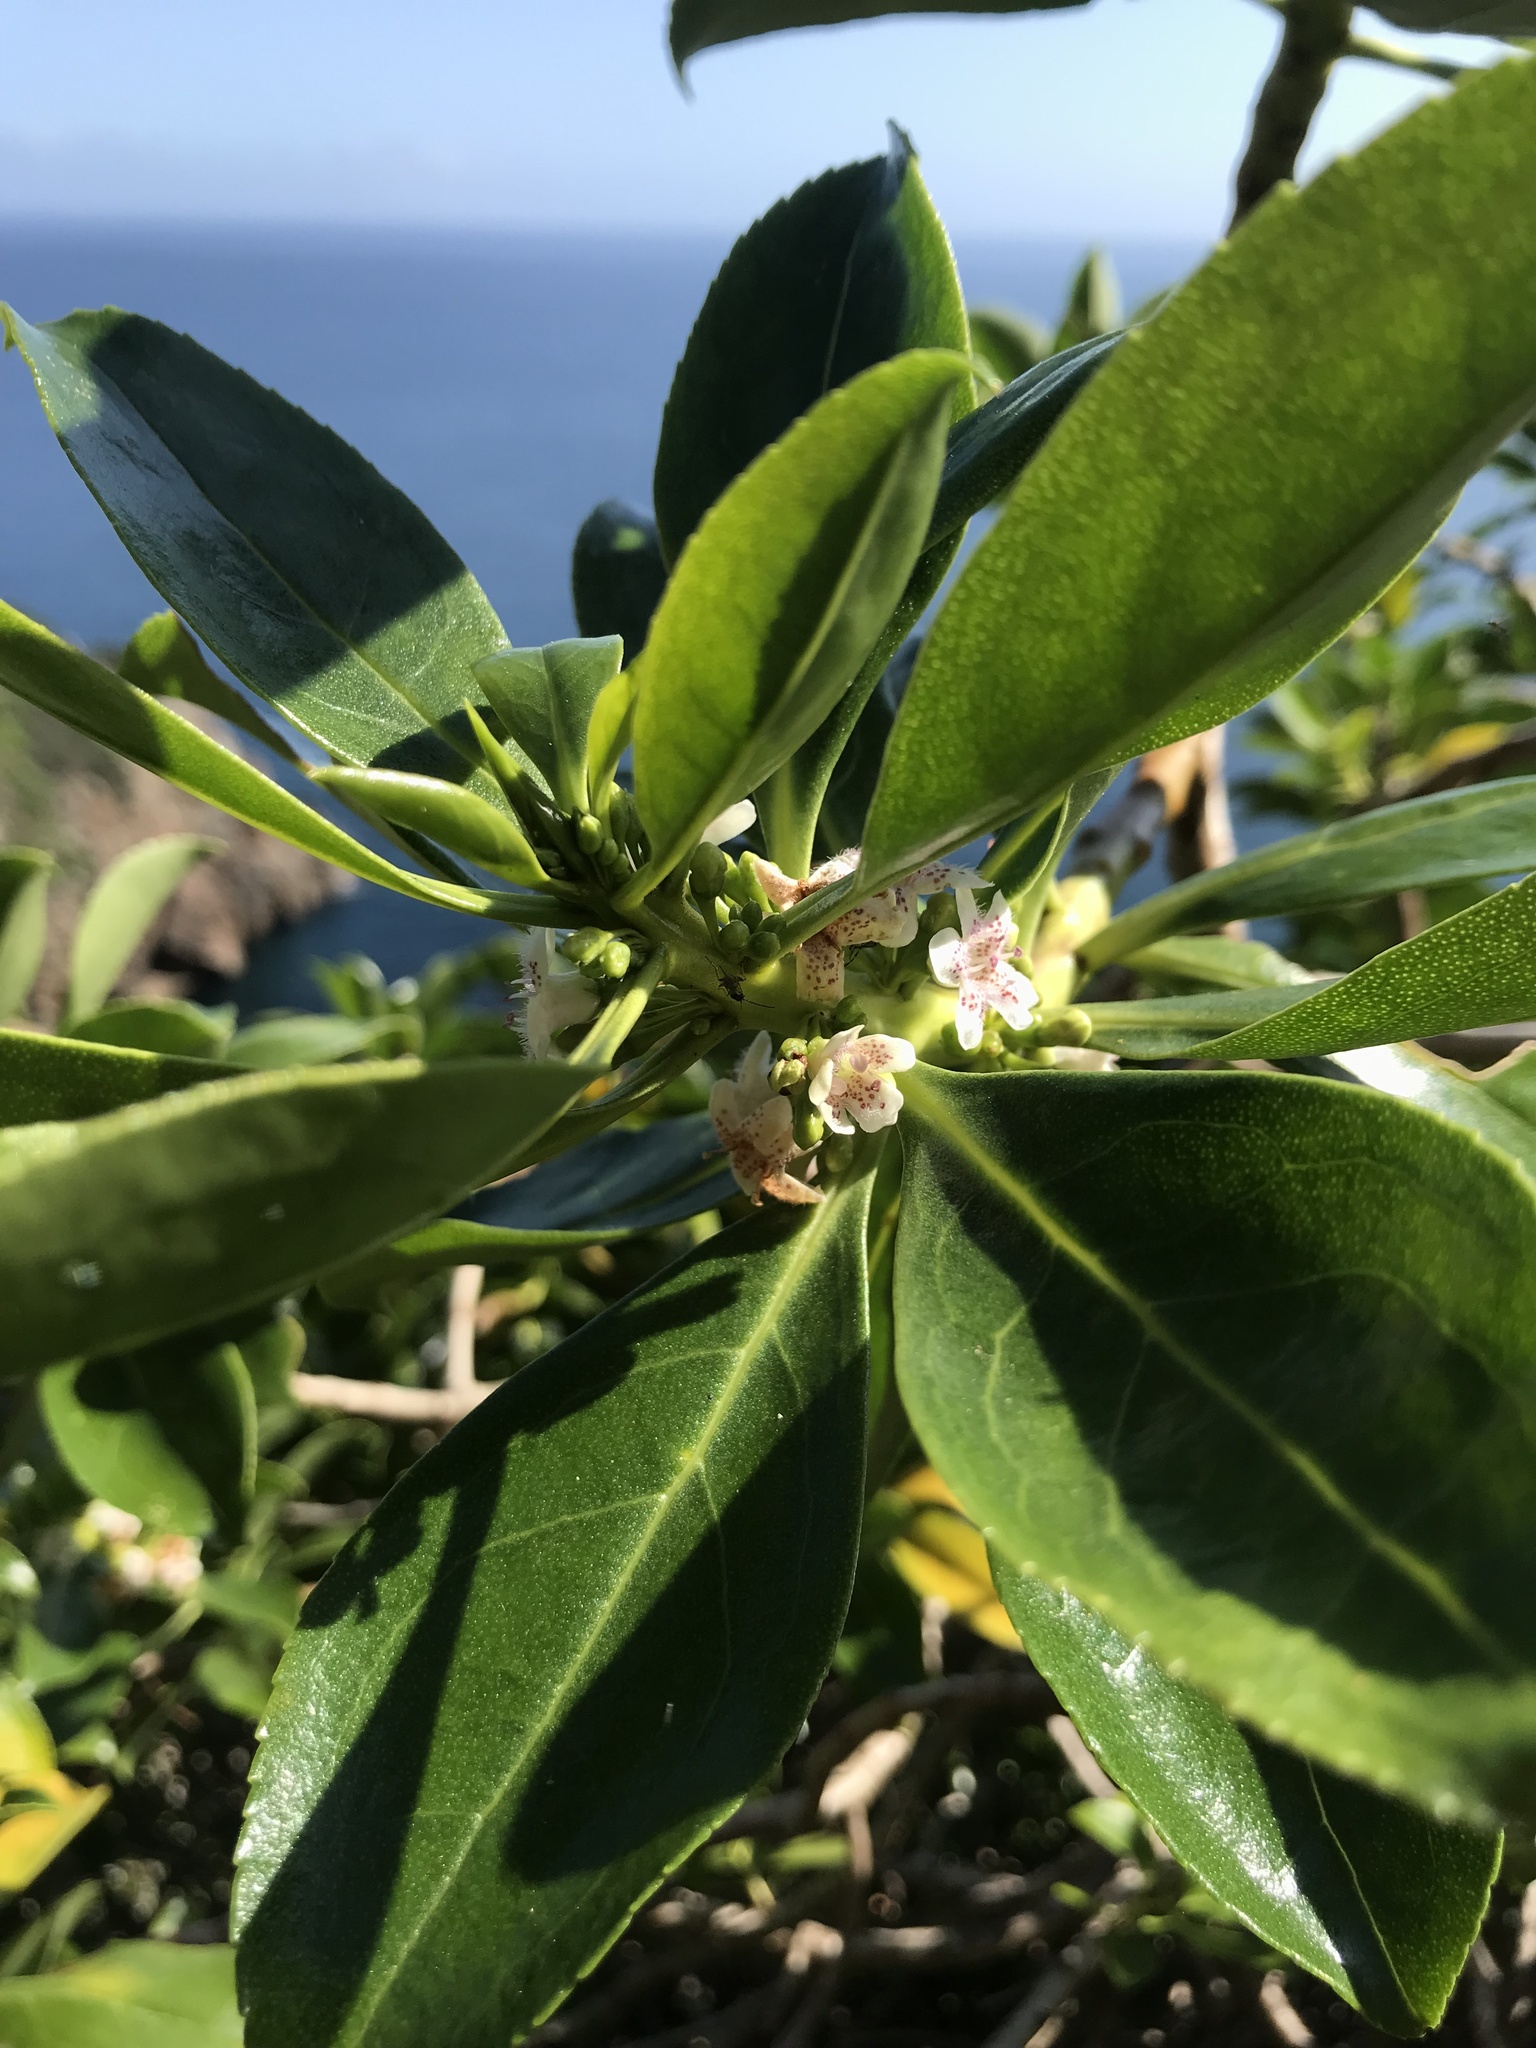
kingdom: Plantae
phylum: Tracheophyta
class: Magnoliopsida
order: Lamiales
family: Scrophulariaceae
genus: Myoporum
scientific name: Myoporum laetum
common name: Ngaio tree
